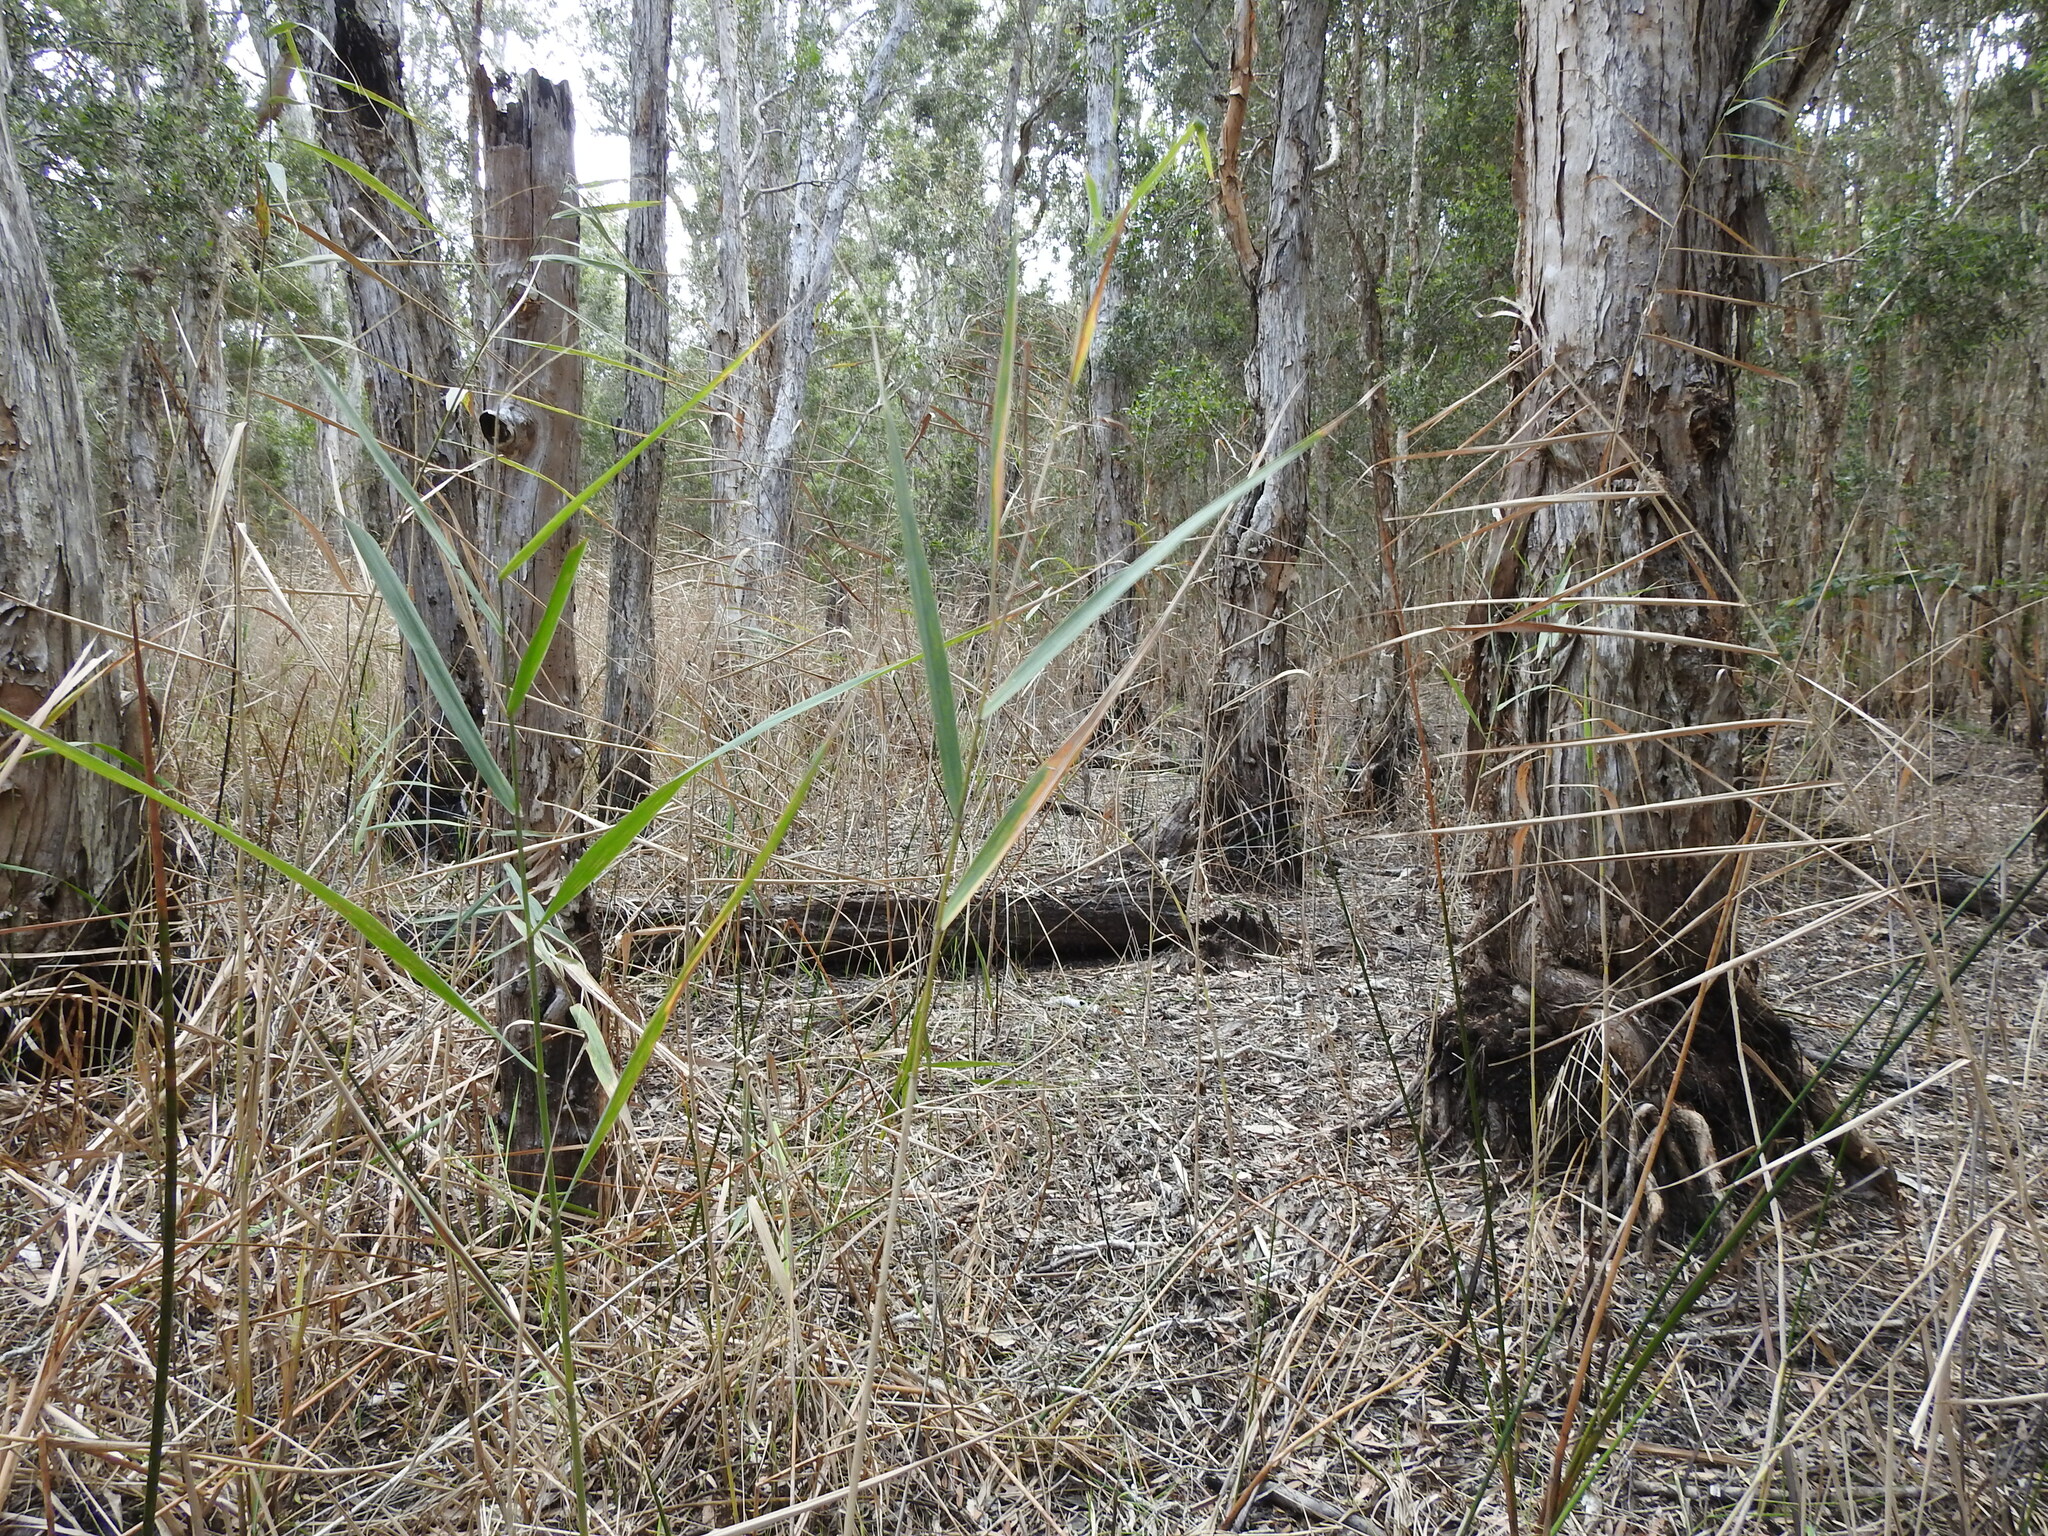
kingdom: Plantae
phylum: Tracheophyta
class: Liliopsida
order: Poales
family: Poaceae
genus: Phragmites
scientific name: Phragmites australis
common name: Common reed
